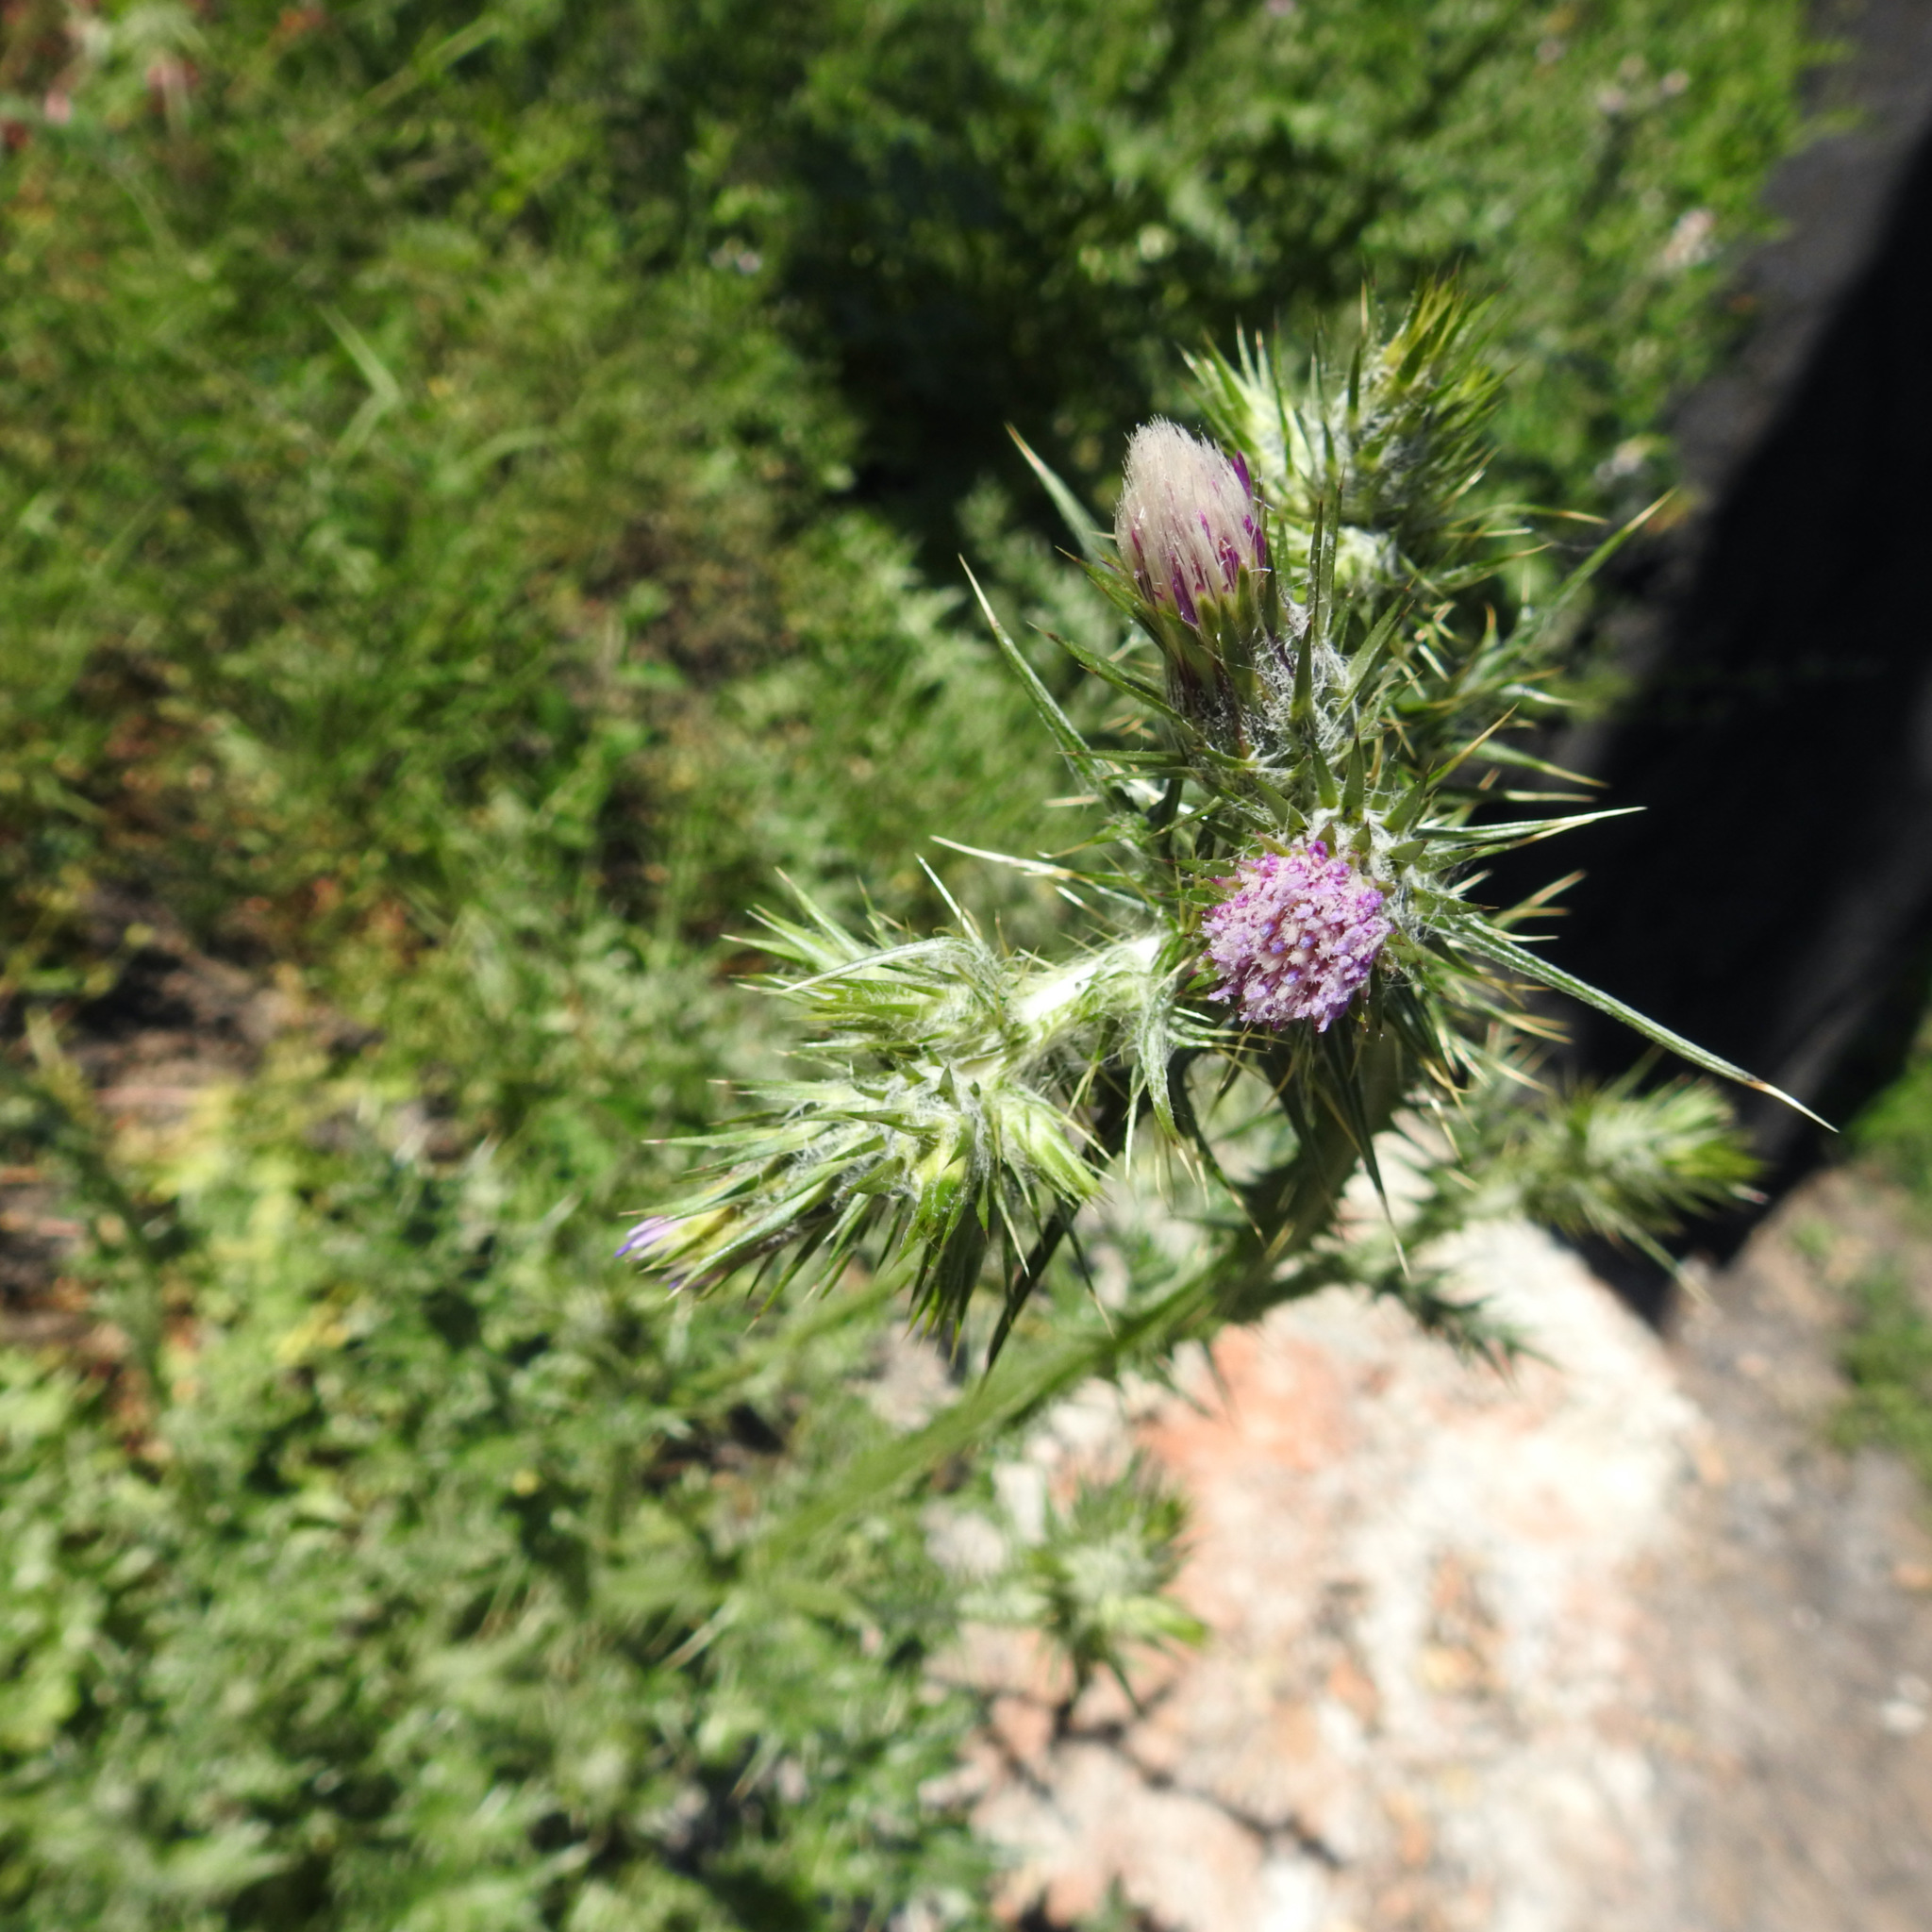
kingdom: Plantae
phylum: Tracheophyta
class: Magnoliopsida
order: Asterales
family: Asteraceae
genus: Carduus
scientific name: Carduus pycnocephalus
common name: Plymouth thistle
